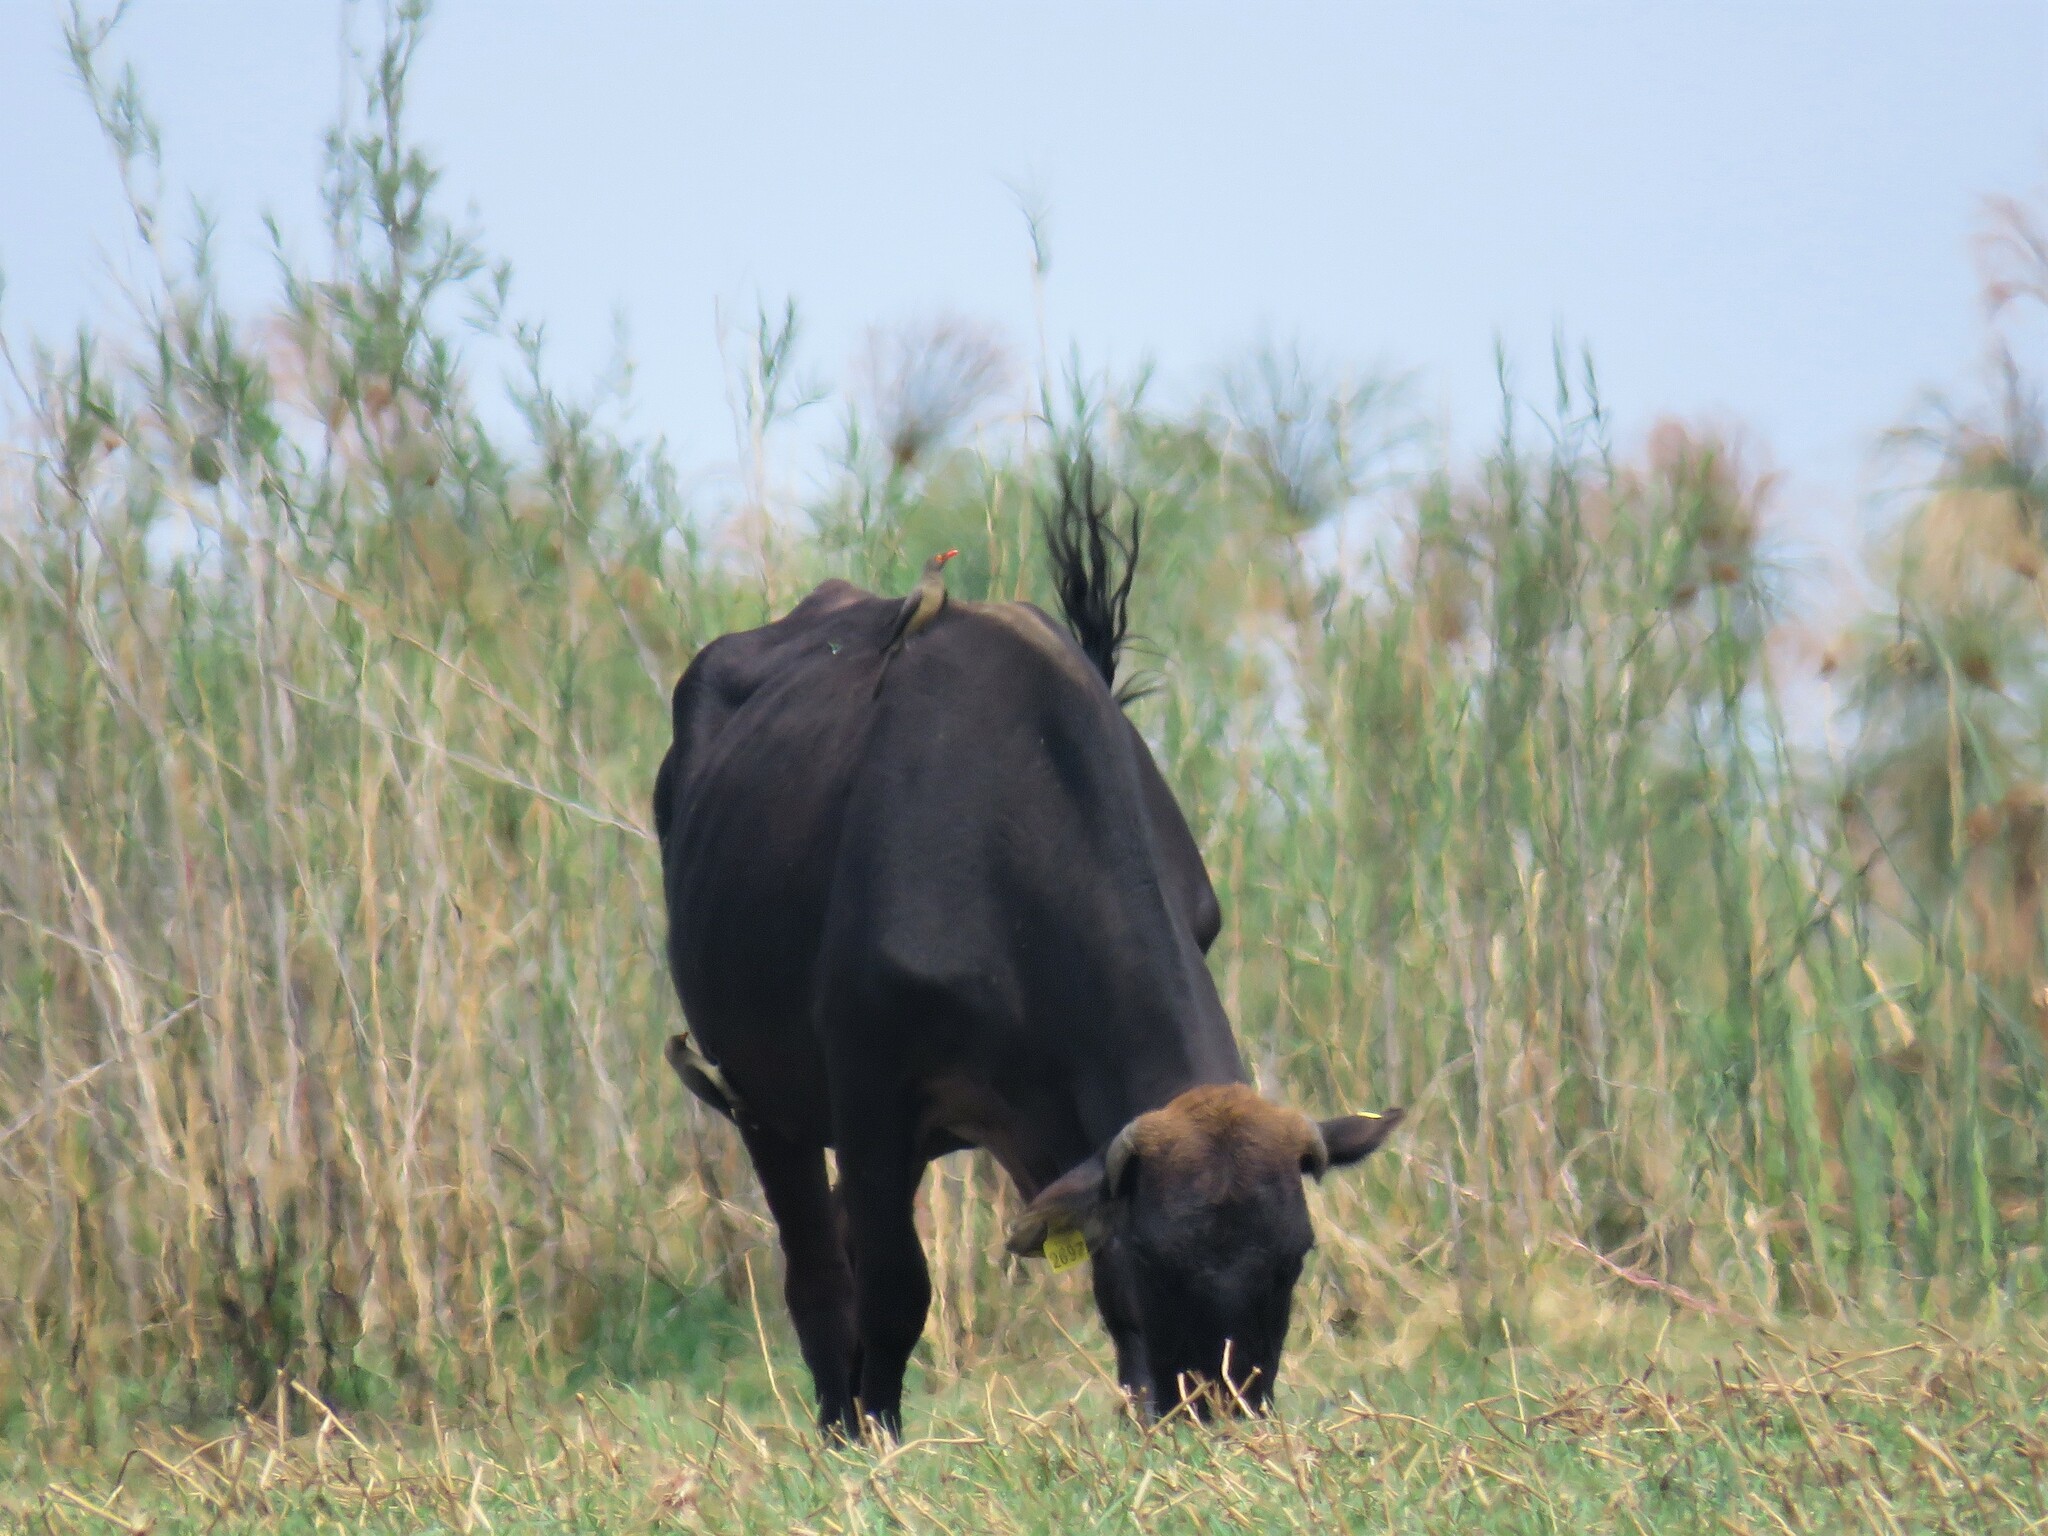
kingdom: Animalia
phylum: Chordata
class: Aves
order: Passeriformes
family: Buphagidae
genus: Buphagus
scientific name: Buphagus erythrorhynchus
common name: Red-billed oxpecker
